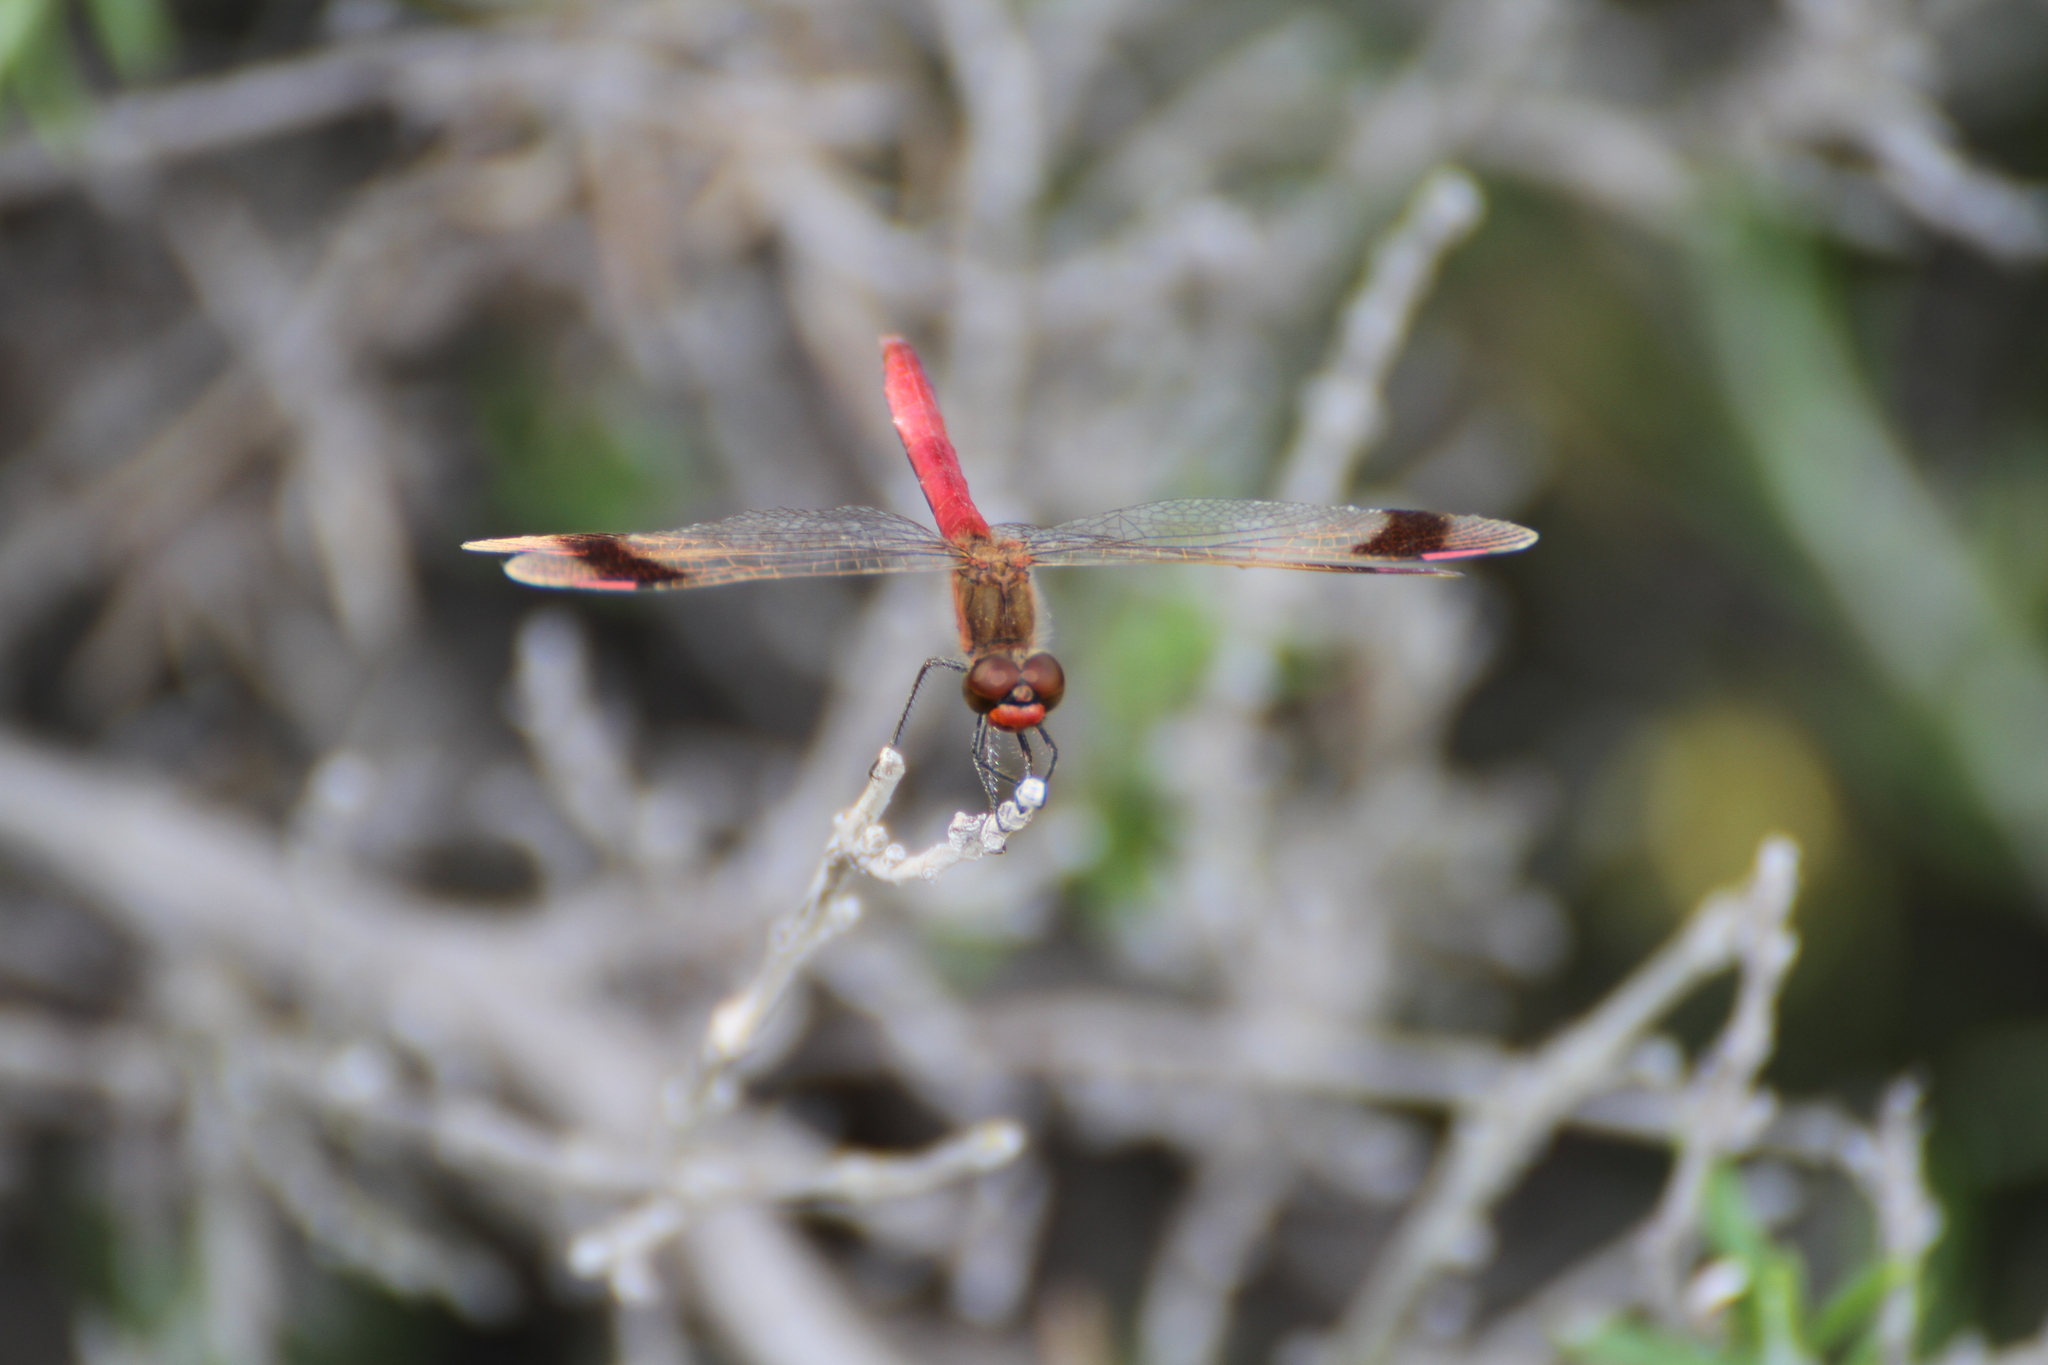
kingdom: Animalia
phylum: Arthropoda
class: Insecta
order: Odonata
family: Libellulidae
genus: Sympetrum
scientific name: Sympetrum pedemontanum
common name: Banded darter
